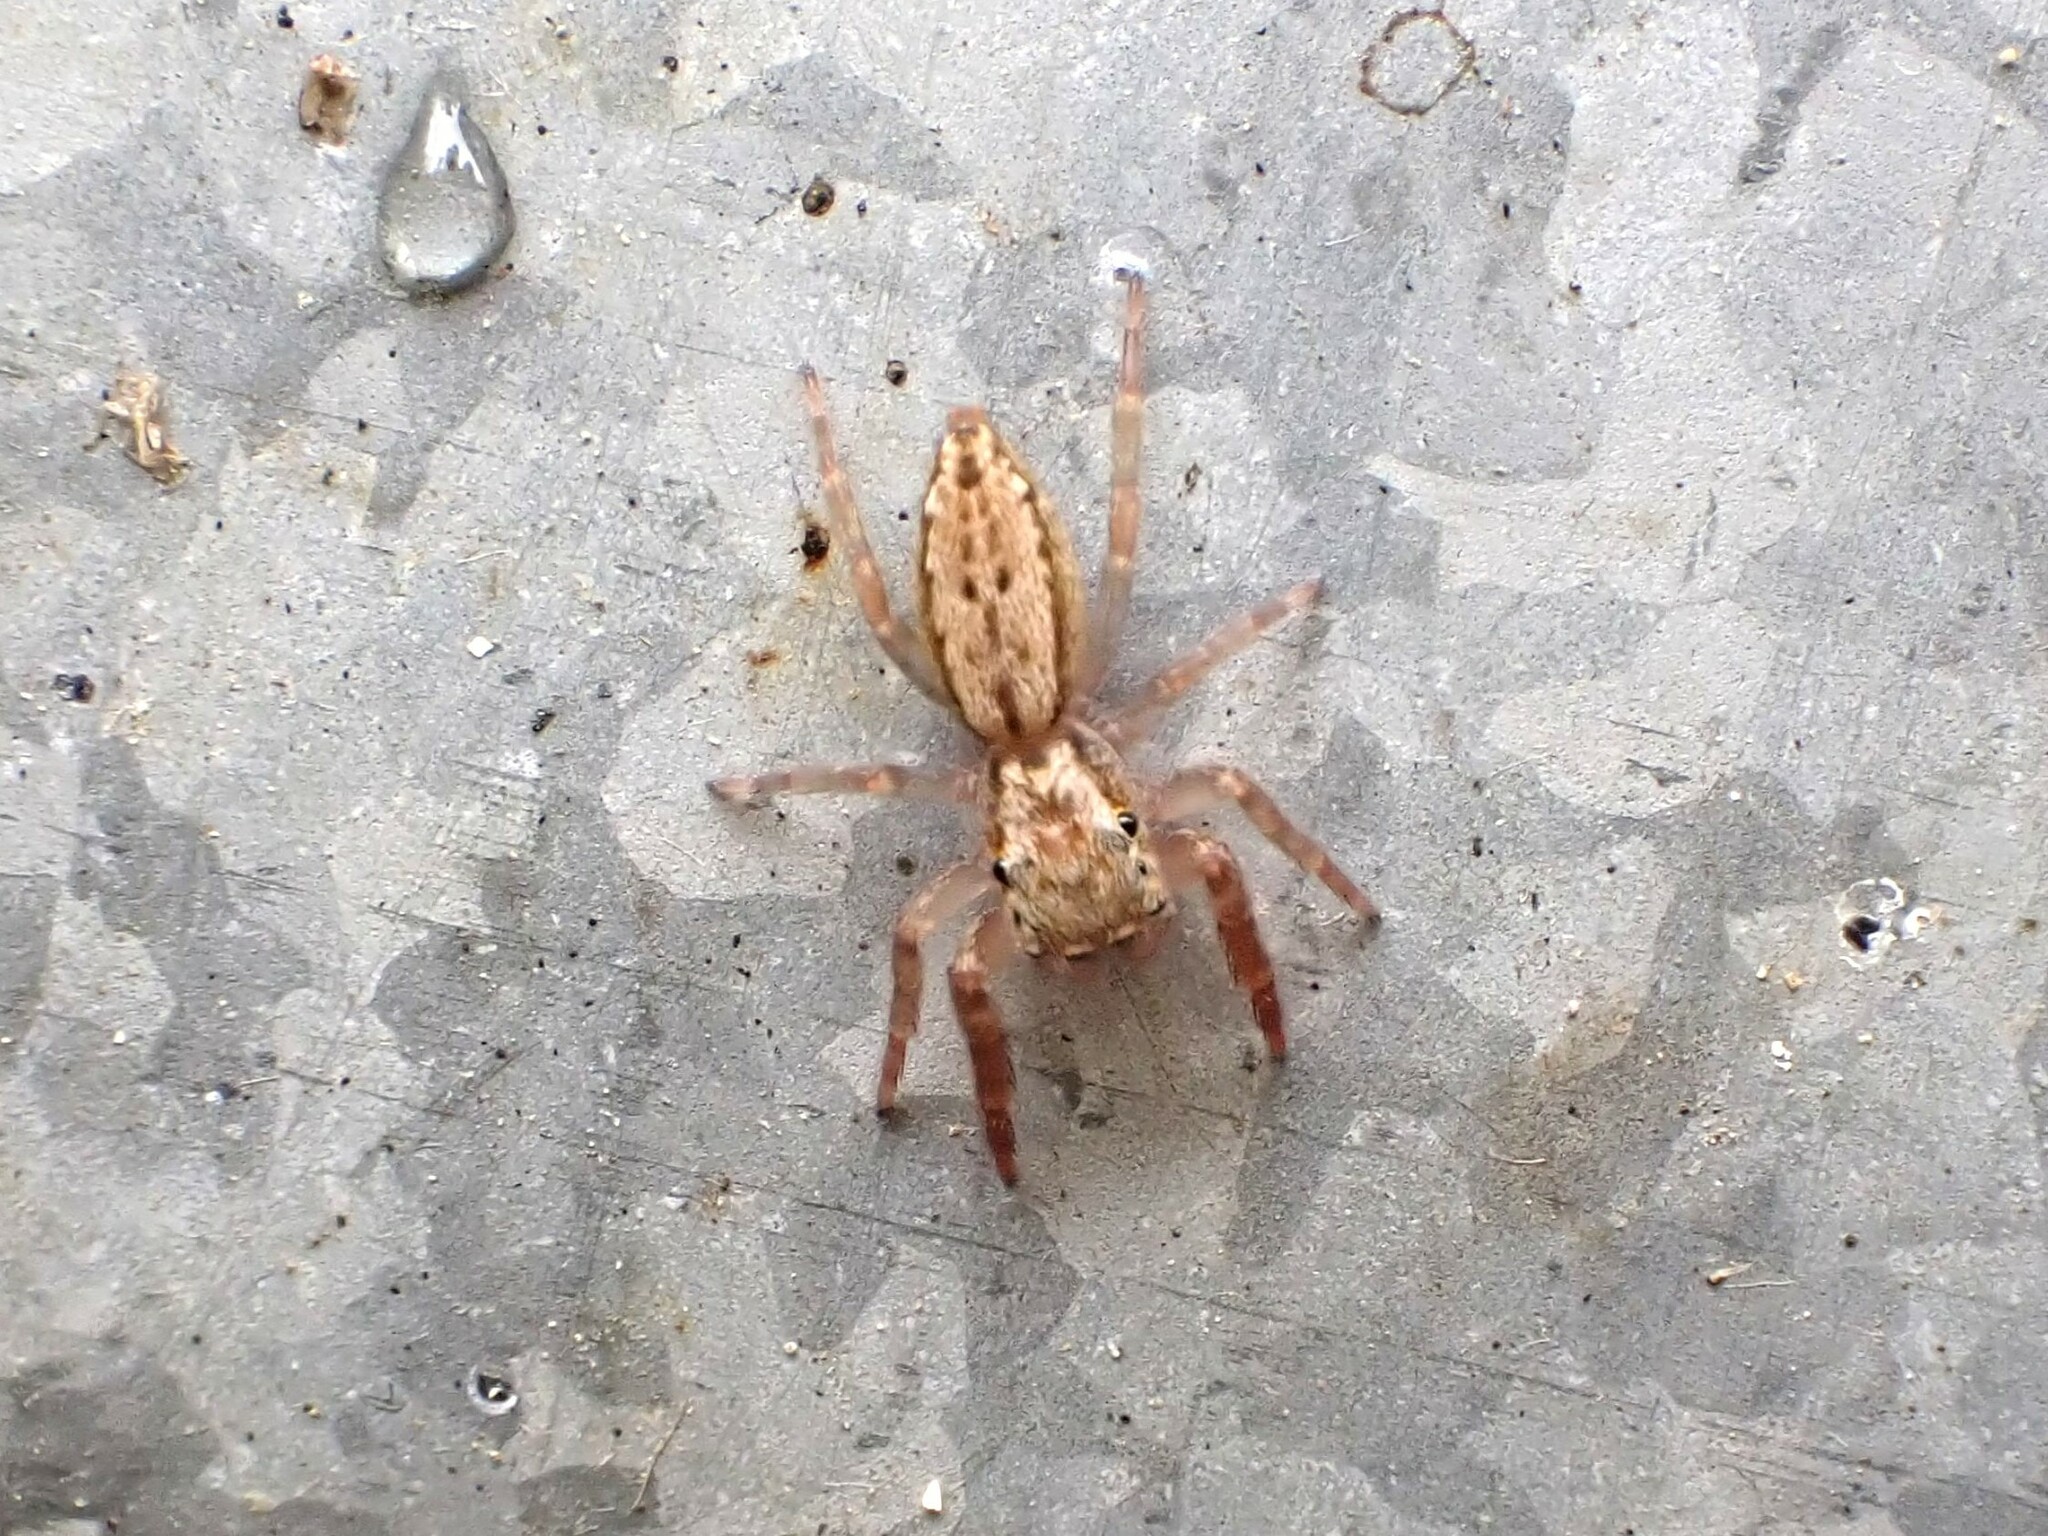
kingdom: Animalia
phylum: Arthropoda
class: Arachnida
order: Araneae
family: Salticidae
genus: Trite
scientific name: Trite auricoma
